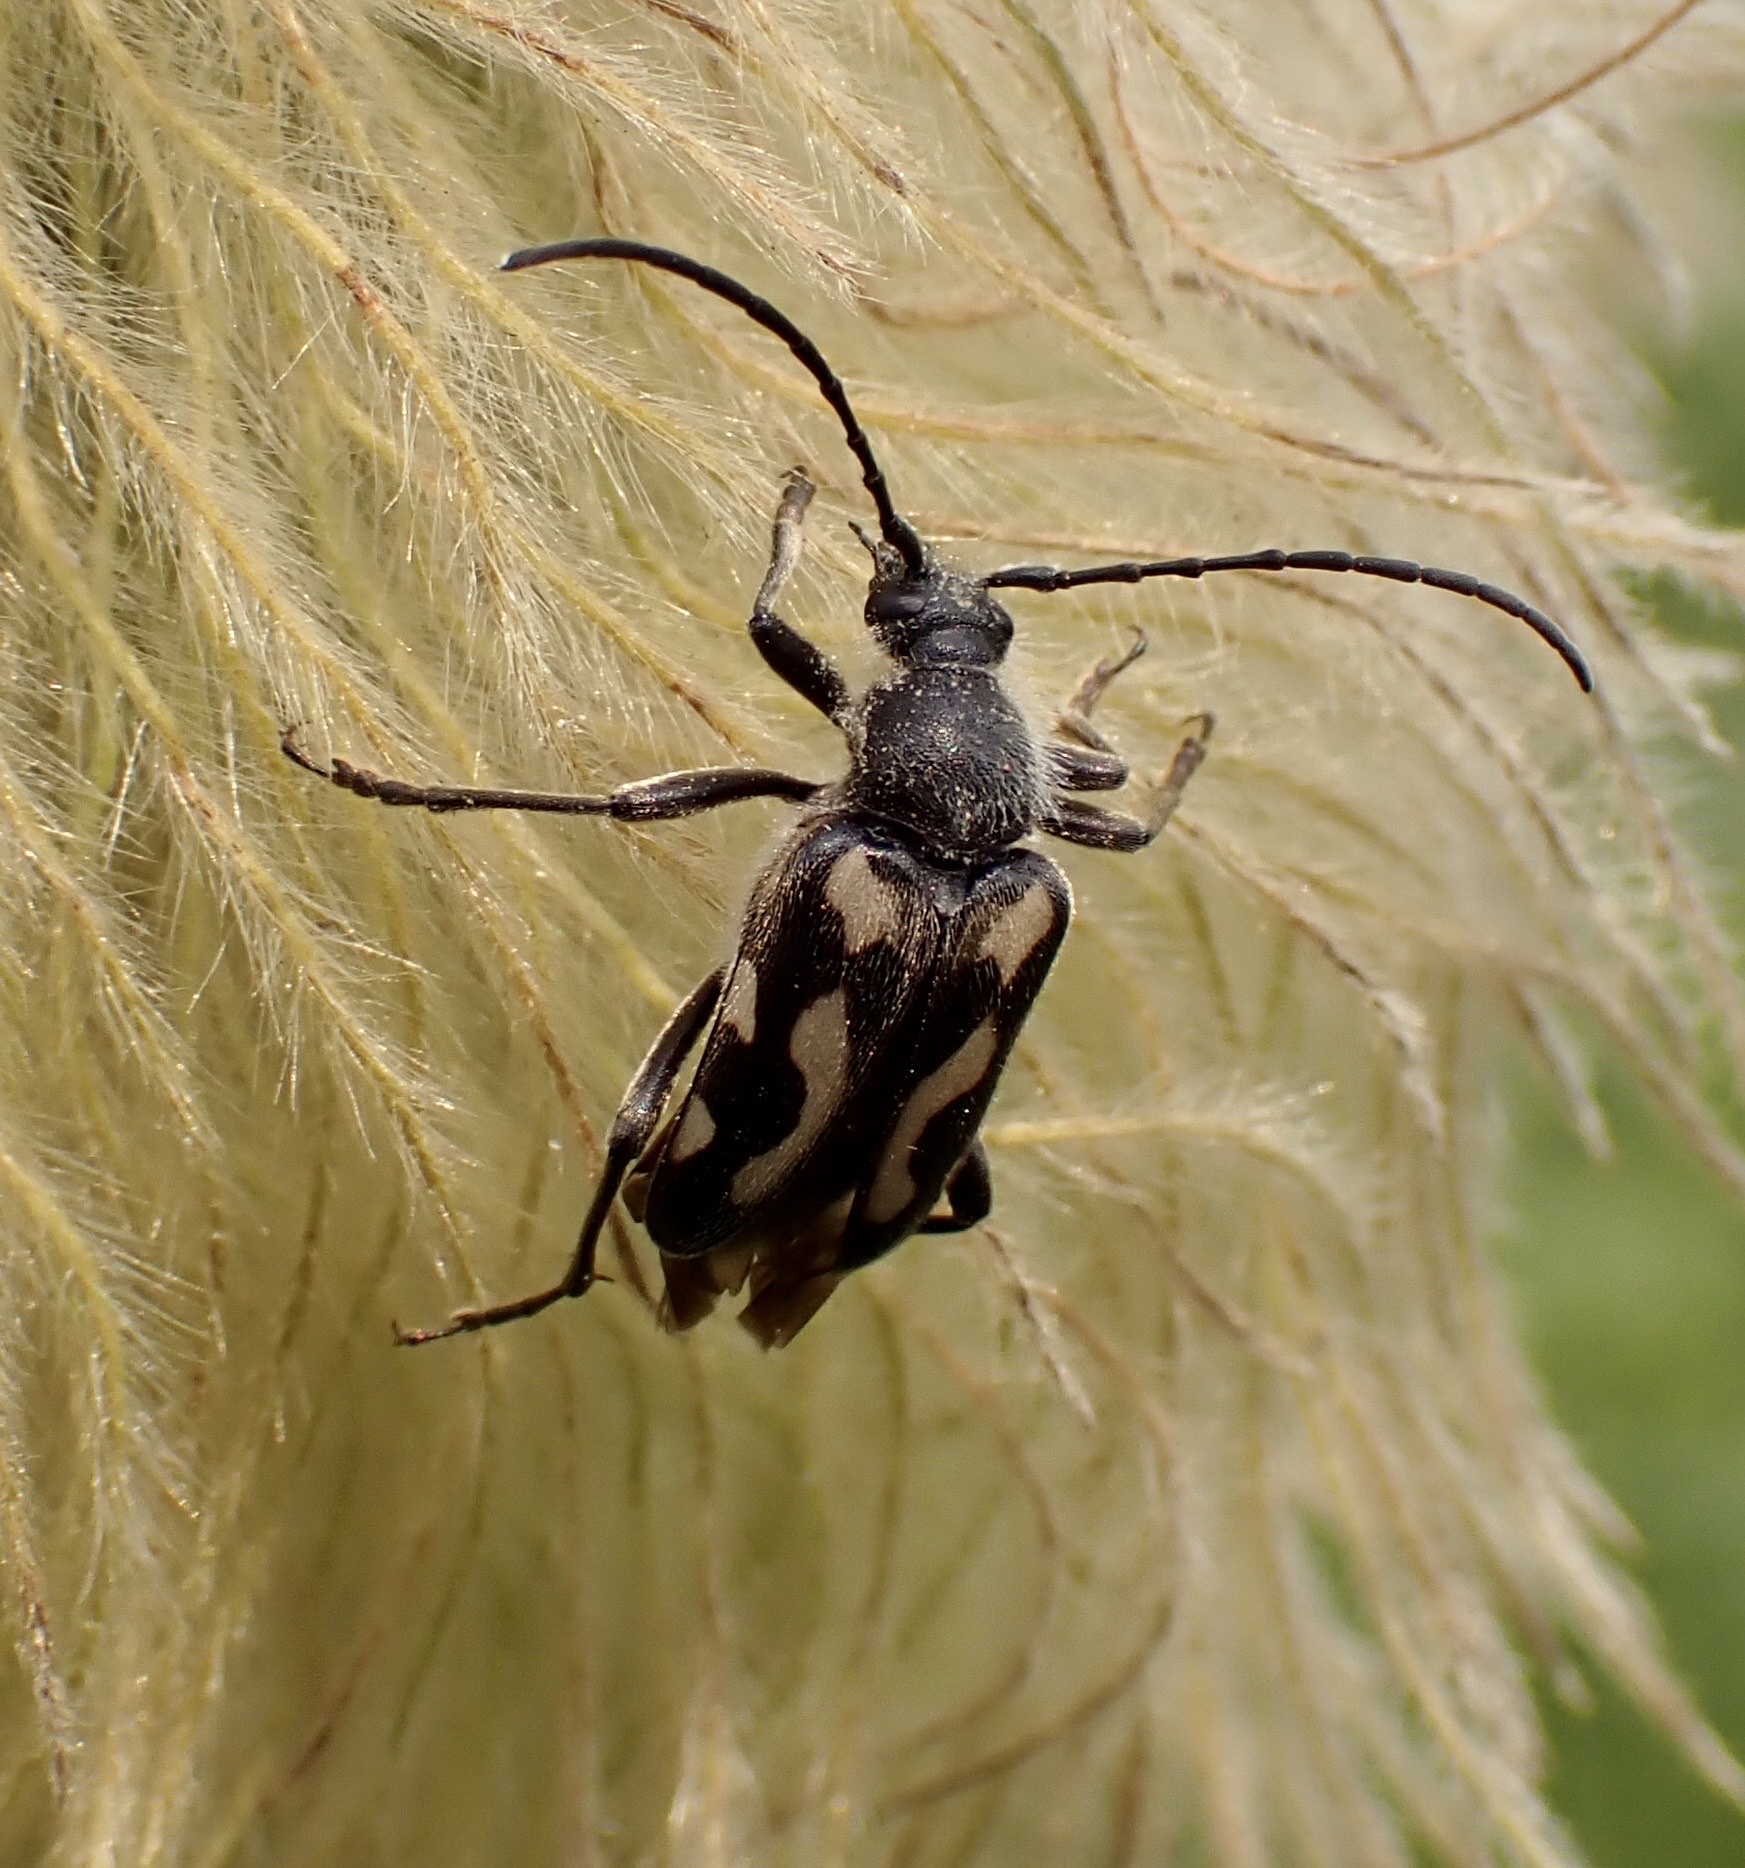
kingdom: Animalia
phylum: Arthropoda
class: Insecta
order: Coleoptera
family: Cerambycidae
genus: Judolia
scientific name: Judolia instabilis
